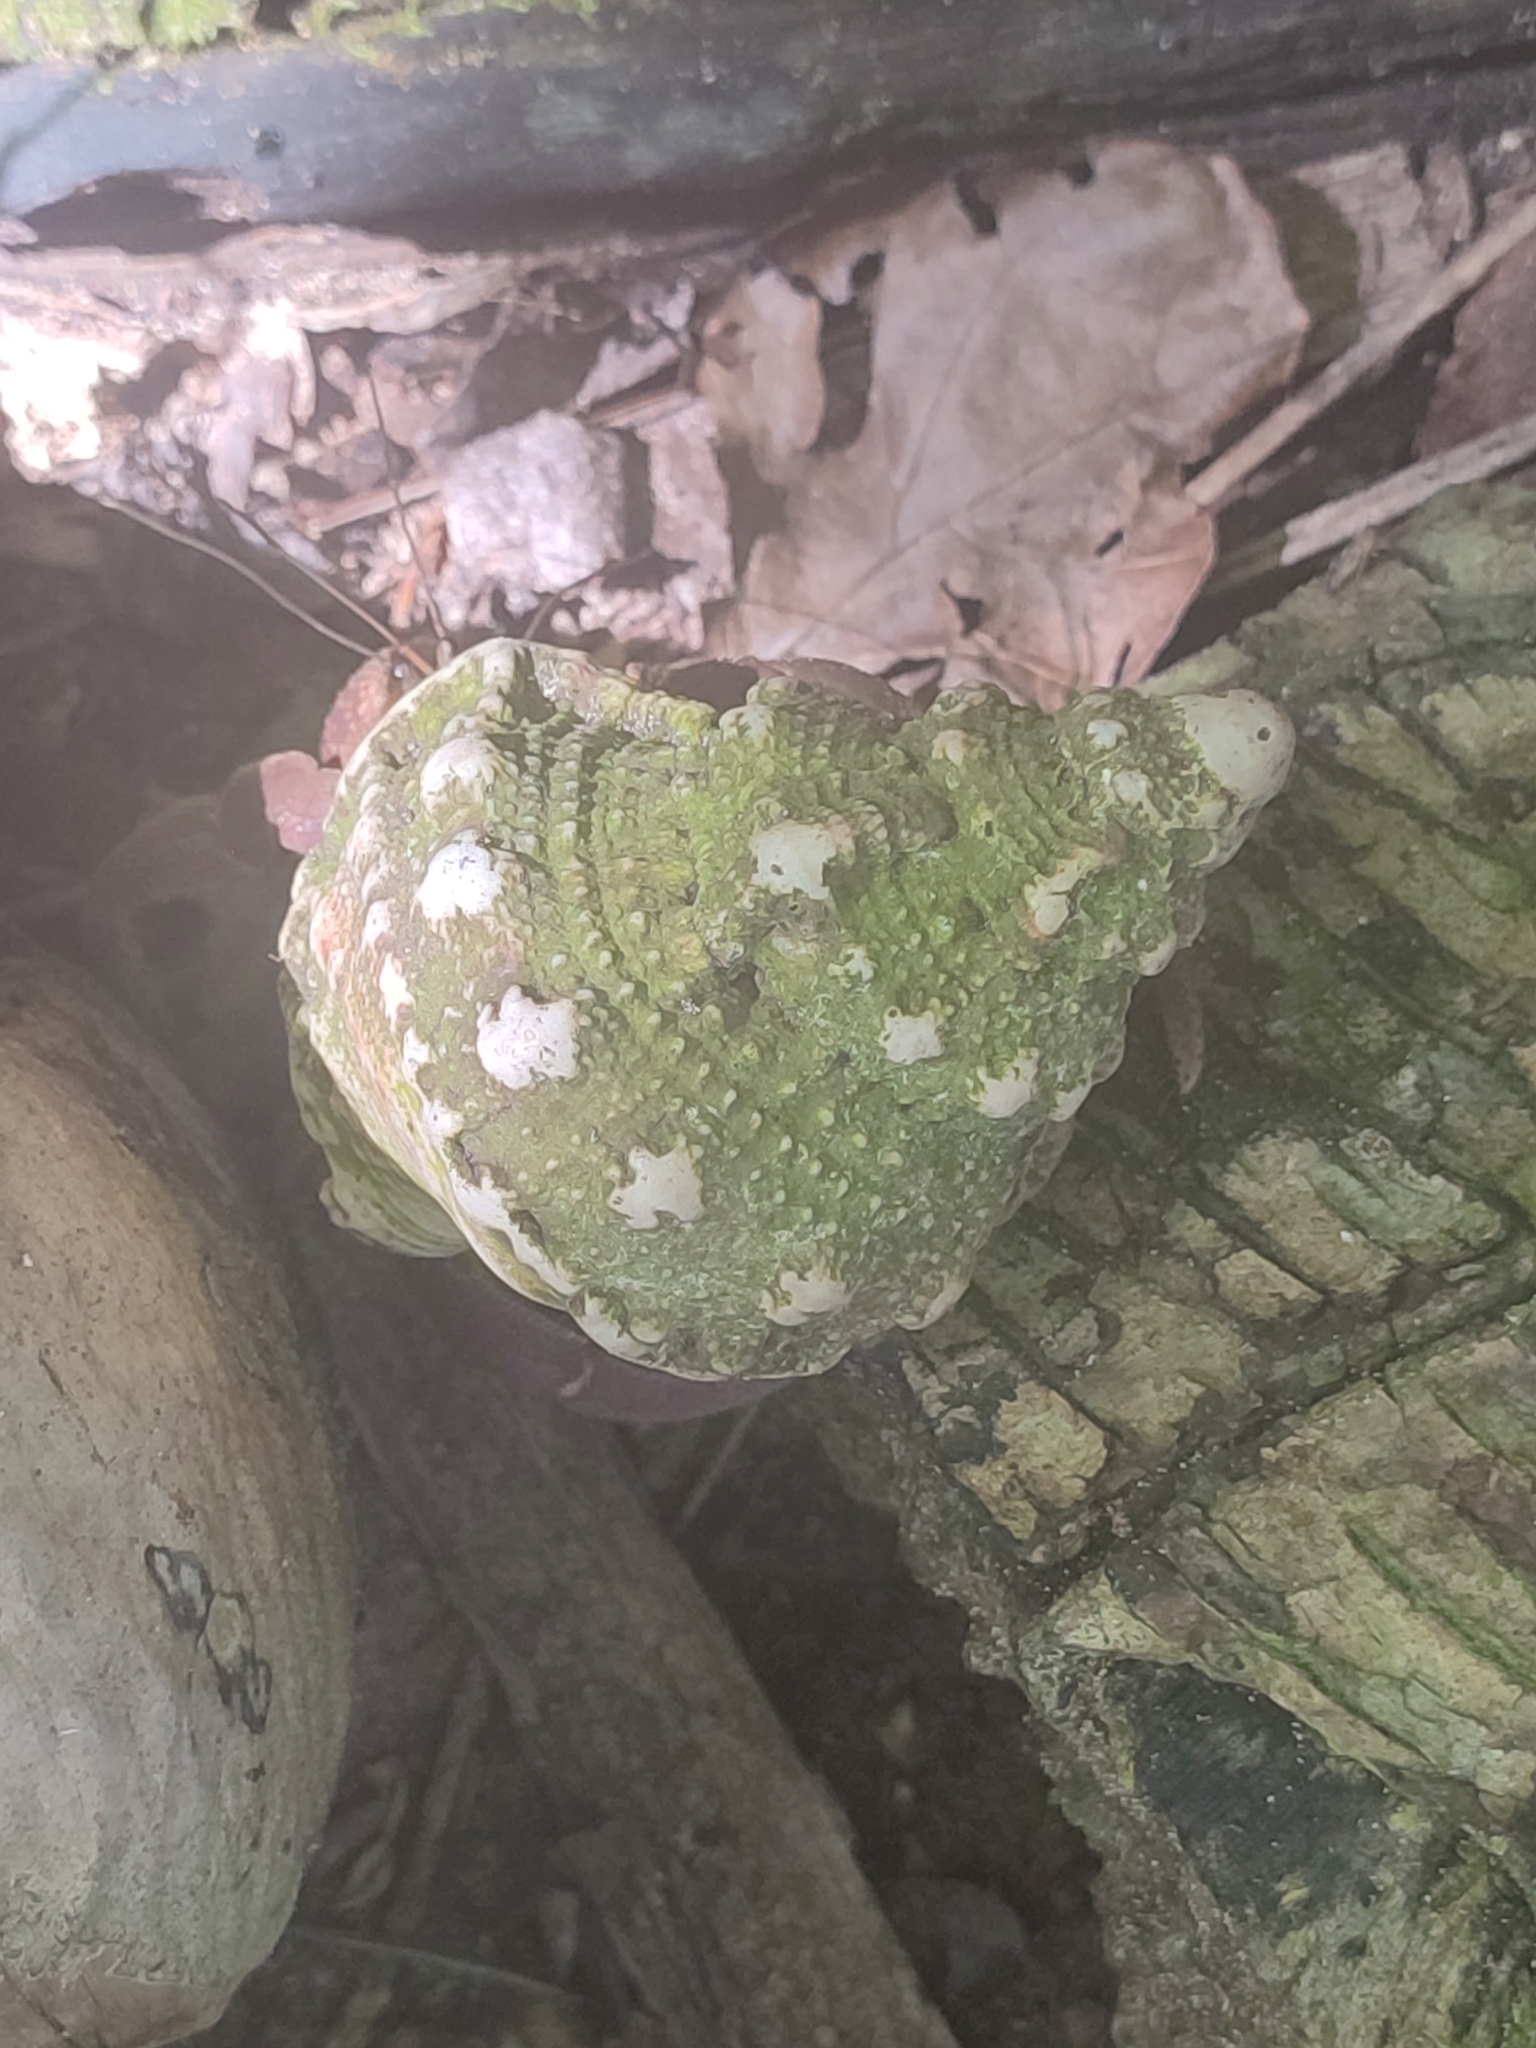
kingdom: Animalia
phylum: Arthropoda
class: Malacostraca
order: Decapoda
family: Coenobitidae
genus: Coenobita
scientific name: Coenobita brevimanus
